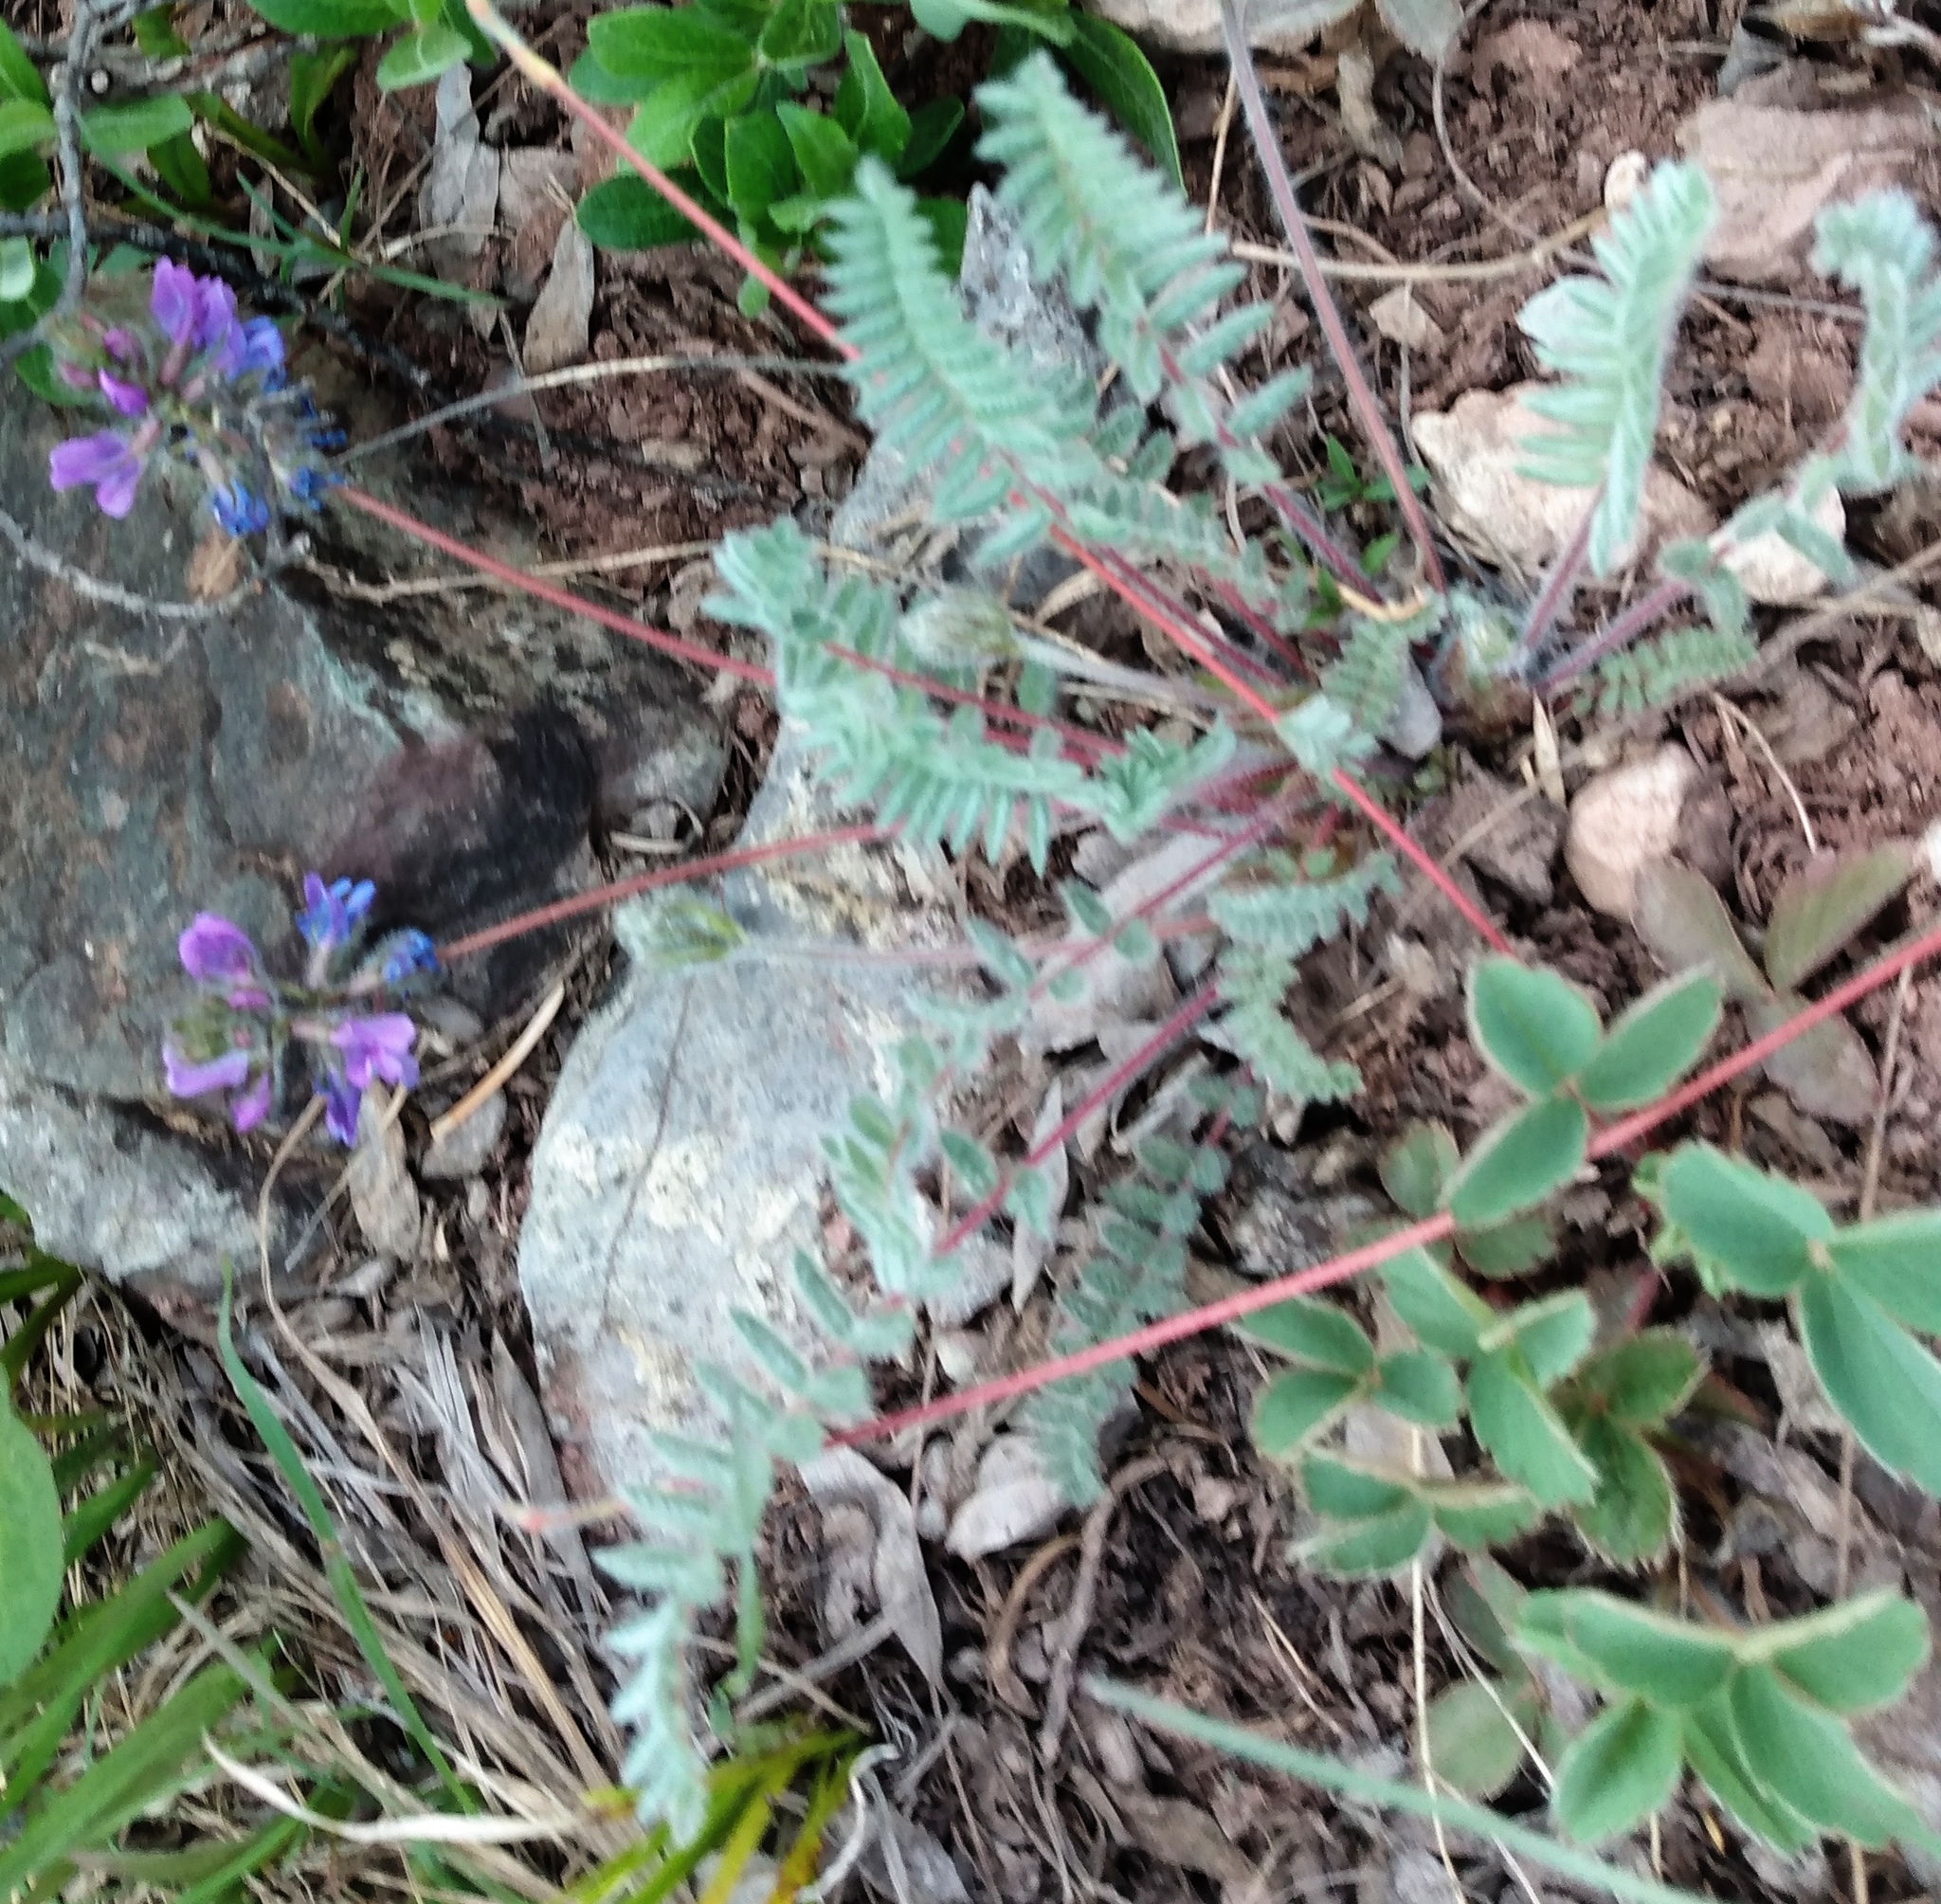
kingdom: Plantae
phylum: Tracheophyta
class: Magnoliopsida
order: Fabales
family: Fabaceae
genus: Oxytropis
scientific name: Oxytropis deflexa
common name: Stemmed oxytrope
